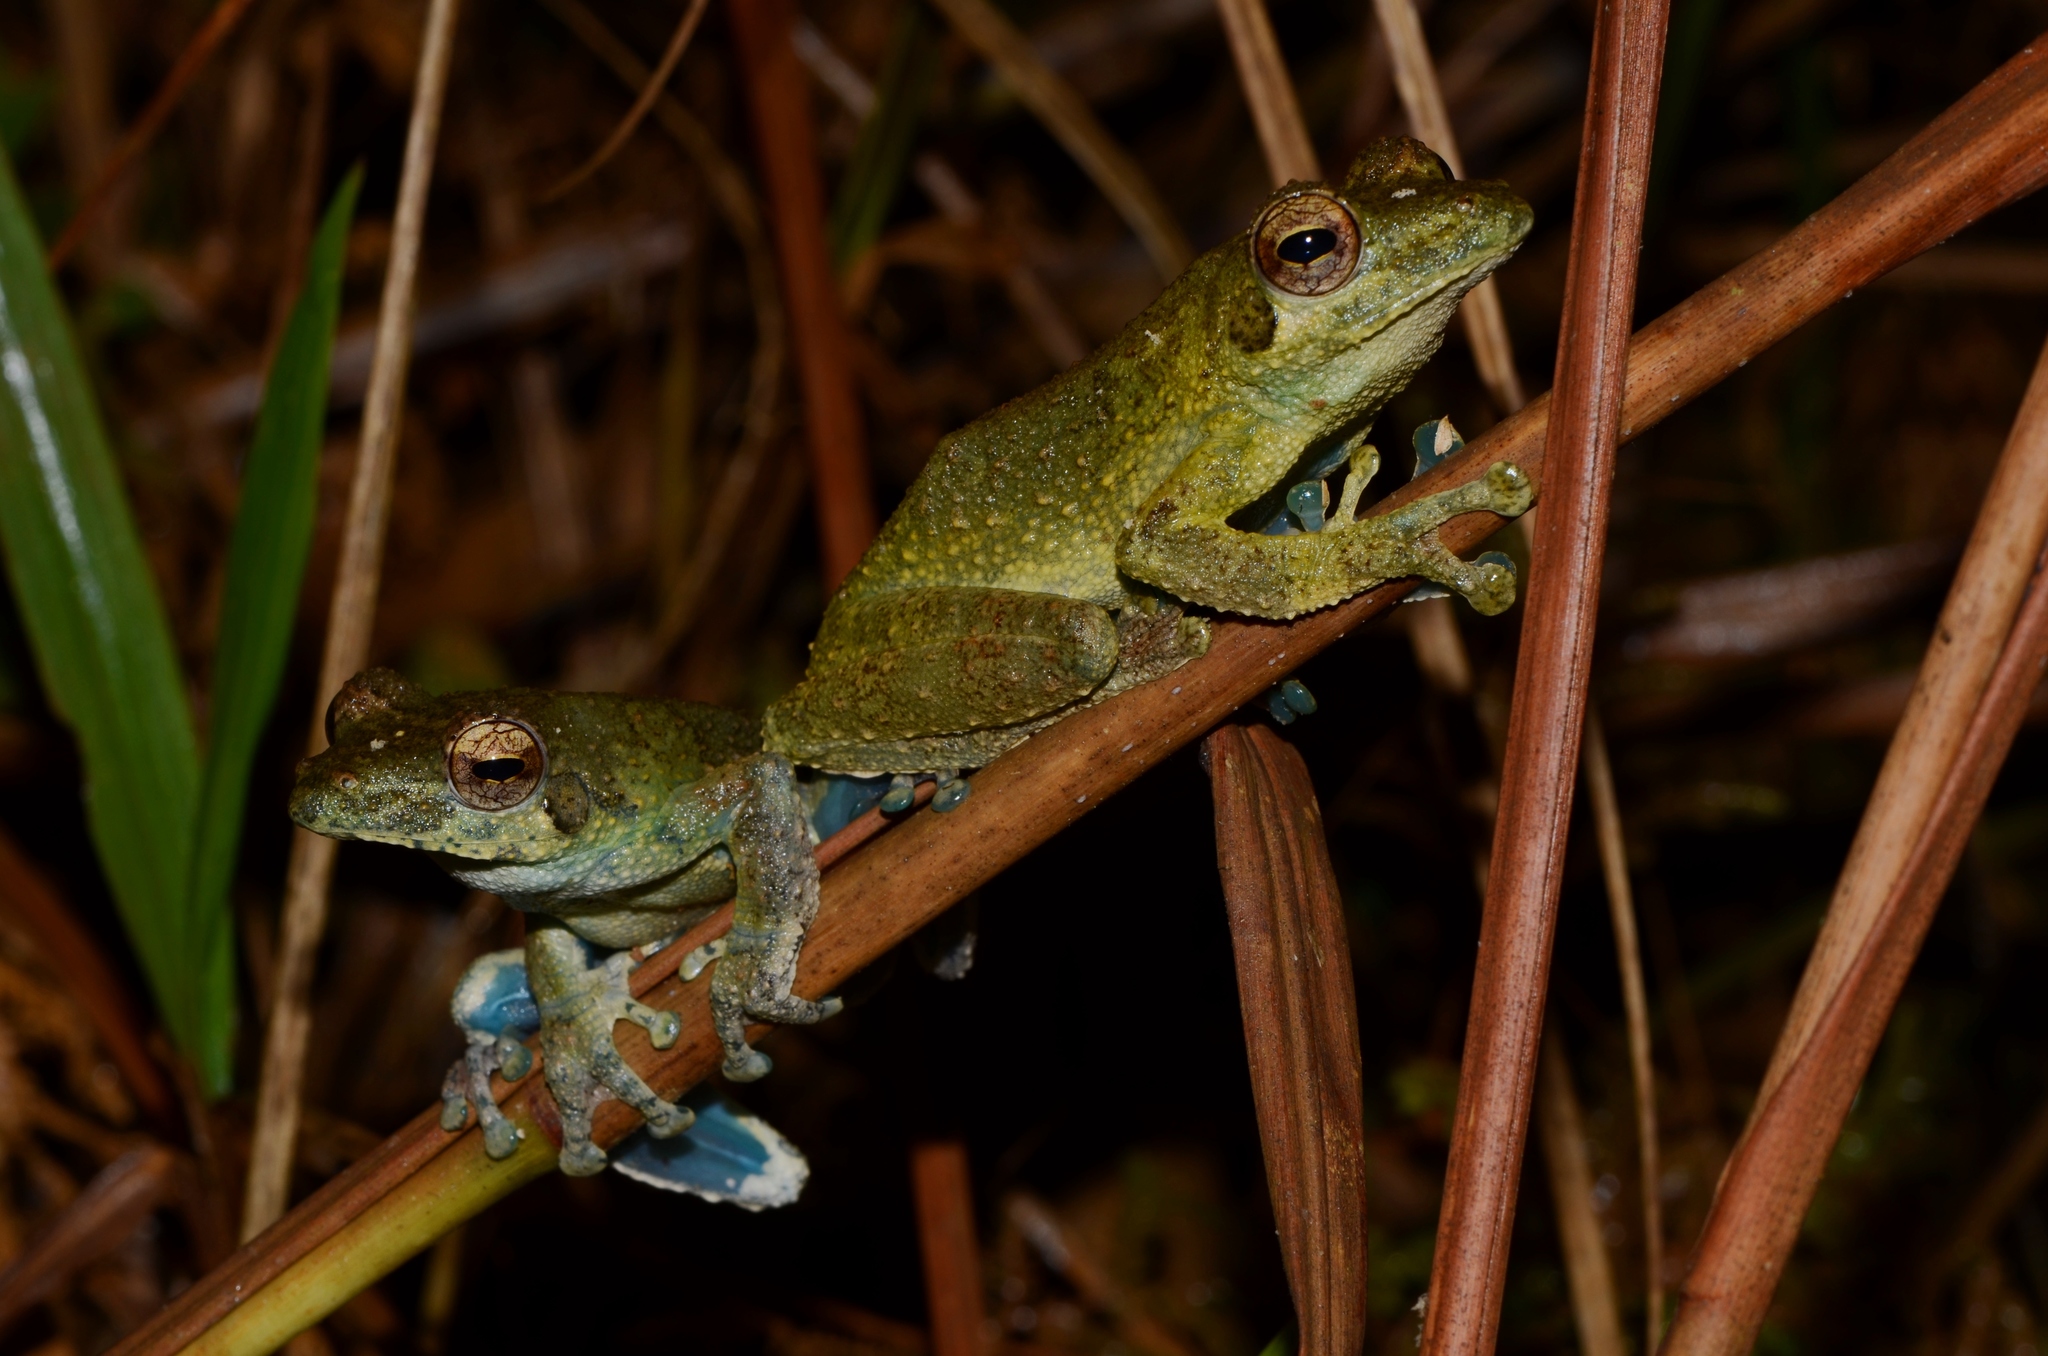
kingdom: Animalia
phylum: Chordata
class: Amphibia
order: Anura
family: Rhacophoridae
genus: Chiromantis
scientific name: Chiromantis rufescens
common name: African foam-nest treefrog
